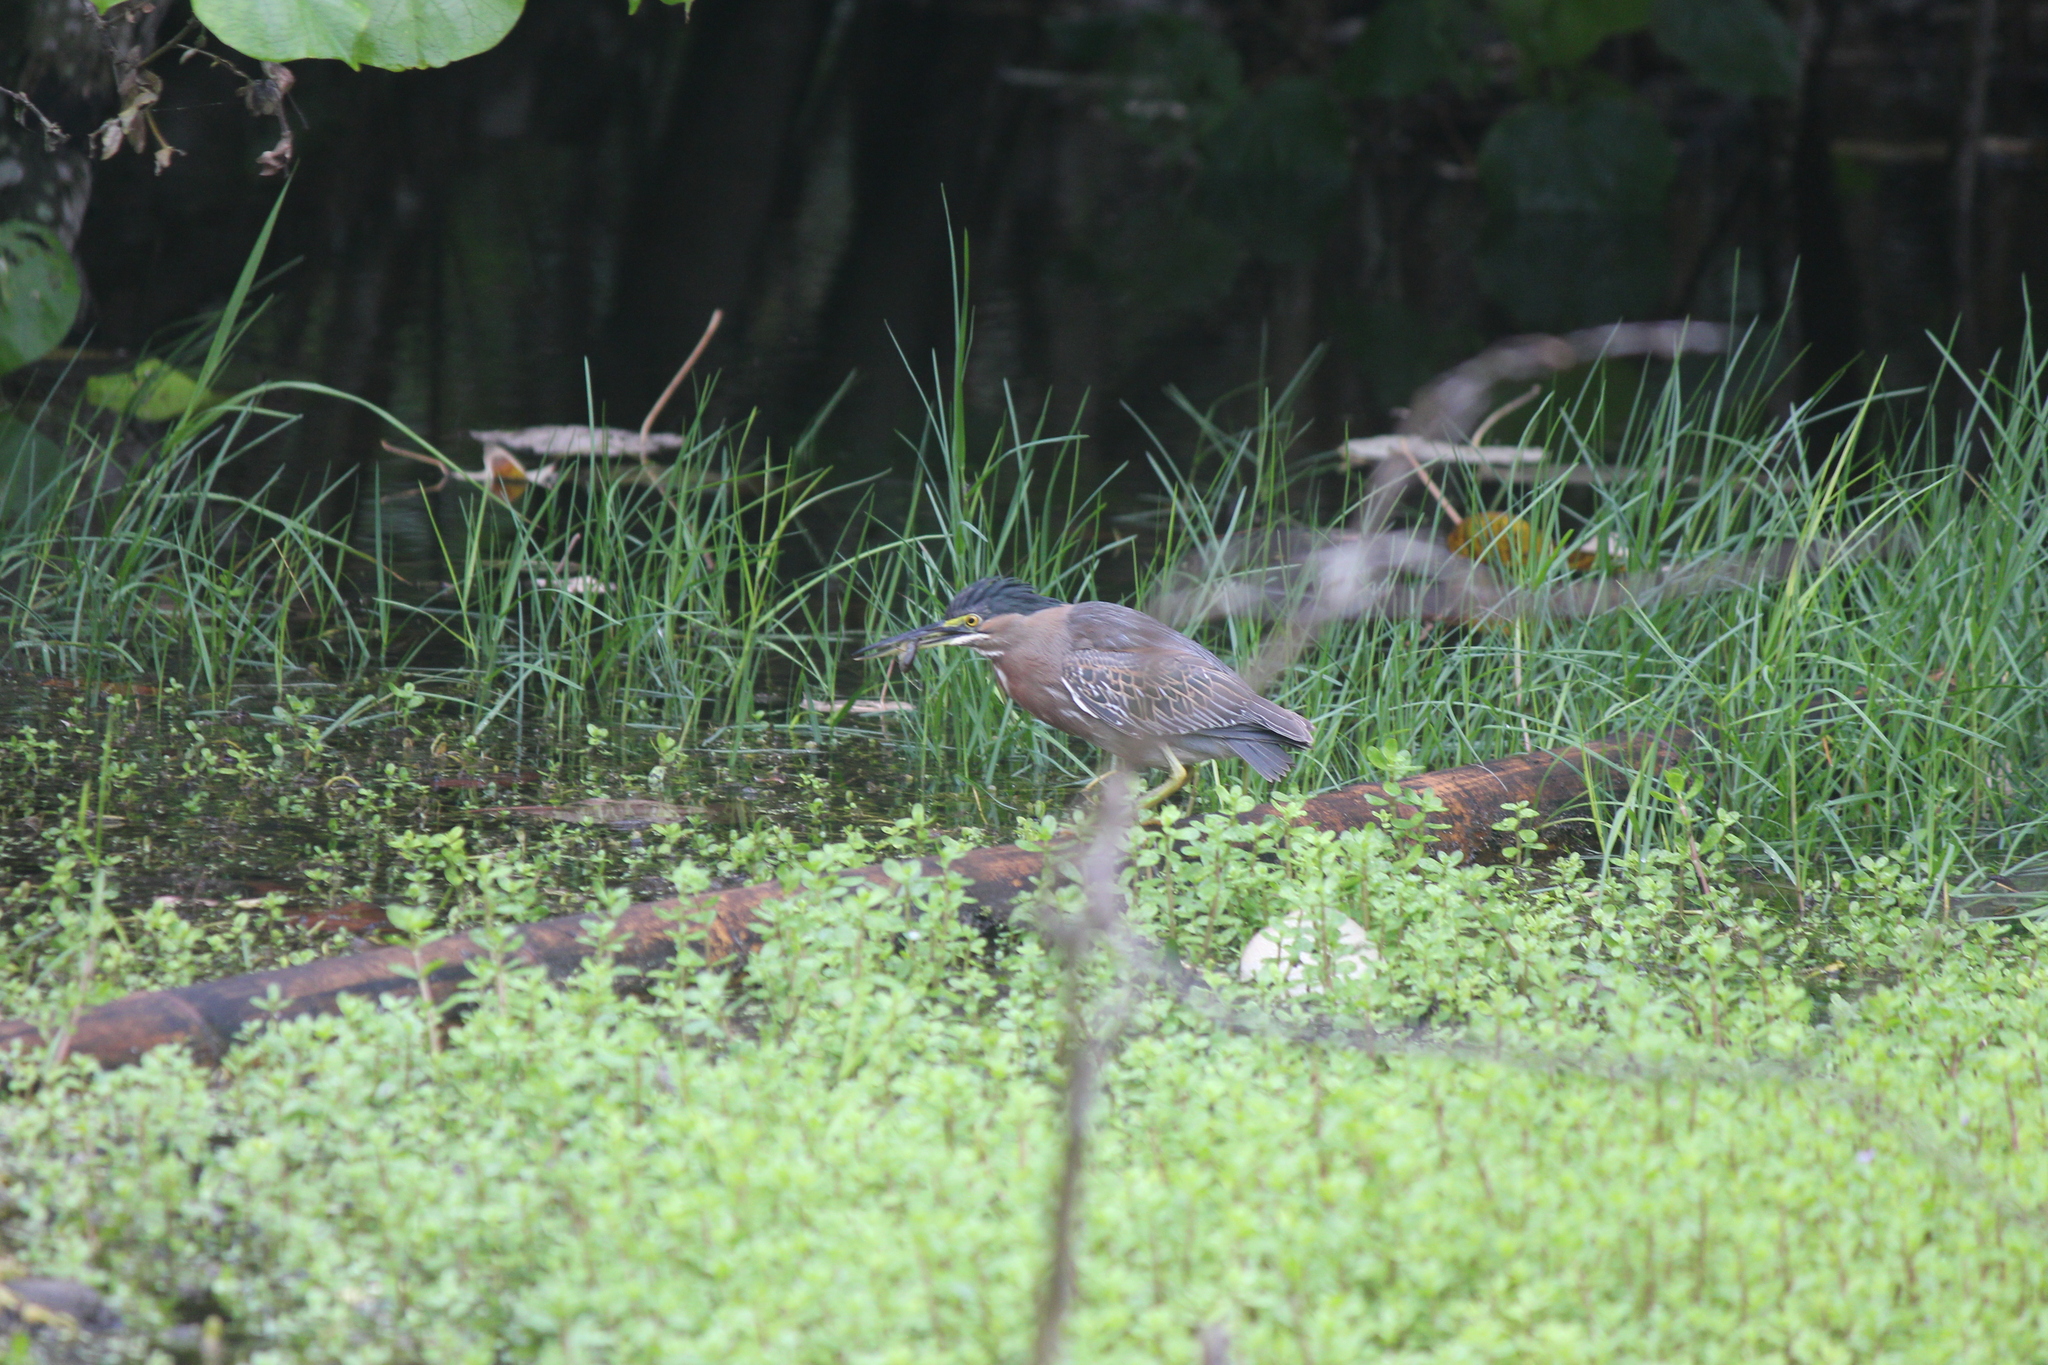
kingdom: Animalia
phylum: Chordata
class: Aves
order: Pelecaniformes
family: Ardeidae
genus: Butorides
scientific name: Butorides striata
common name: Striated heron
